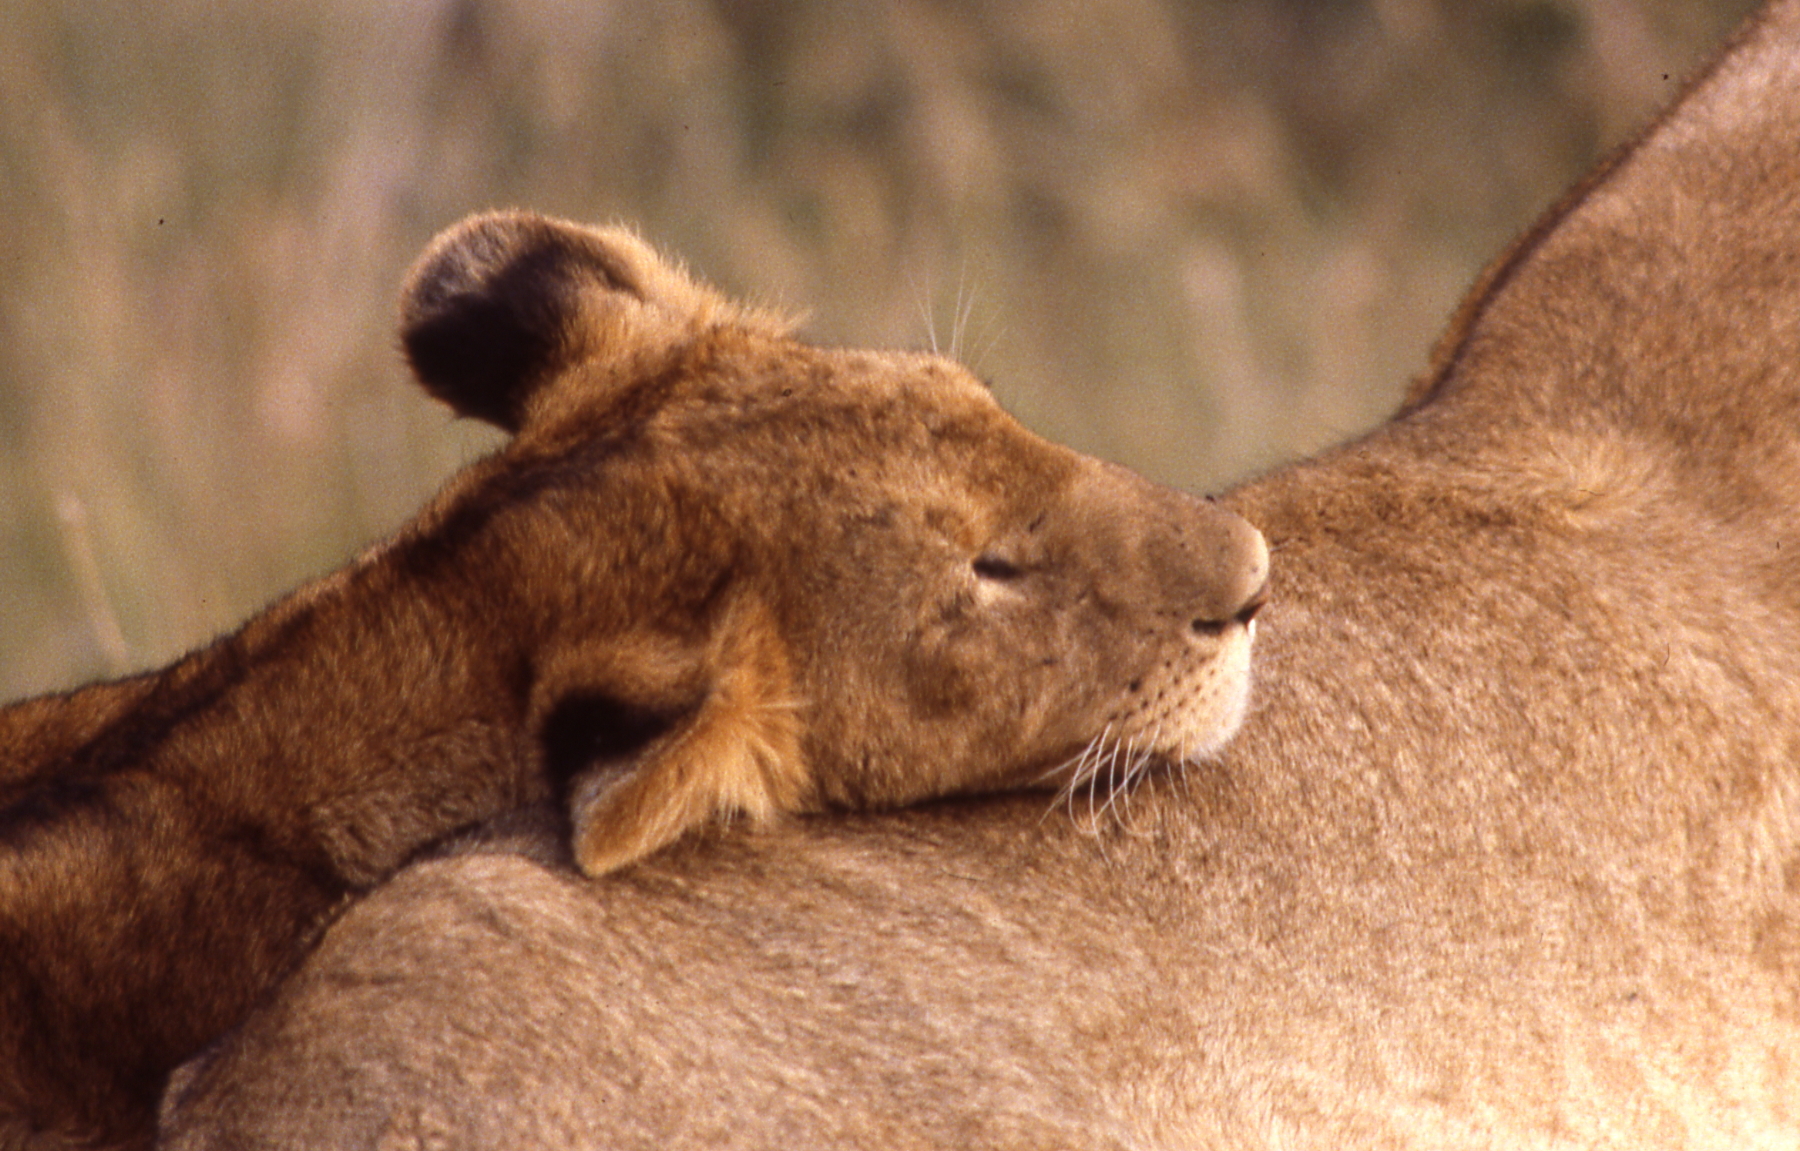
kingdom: Animalia
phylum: Chordata
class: Mammalia
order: Carnivora
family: Felidae
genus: Panthera
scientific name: Panthera leo
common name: Lion
